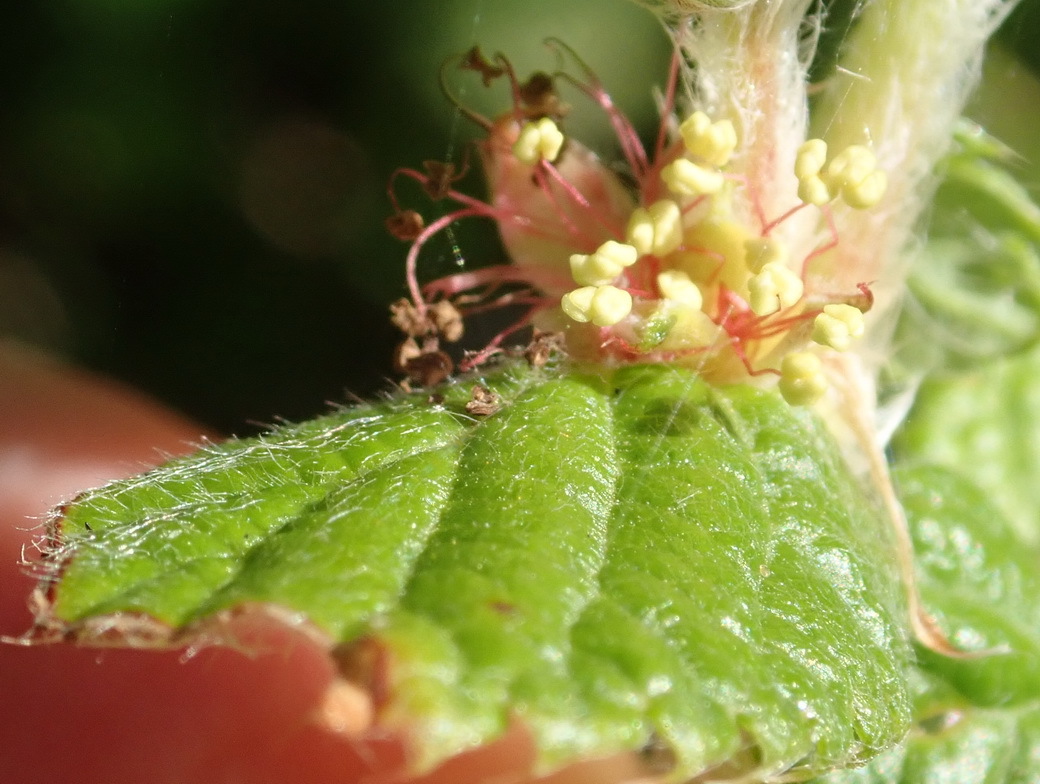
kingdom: Plantae
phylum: Tracheophyta
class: Magnoliopsida
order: Rosales
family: Rosaceae
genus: Cliffortia
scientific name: Cliffortia odorata
